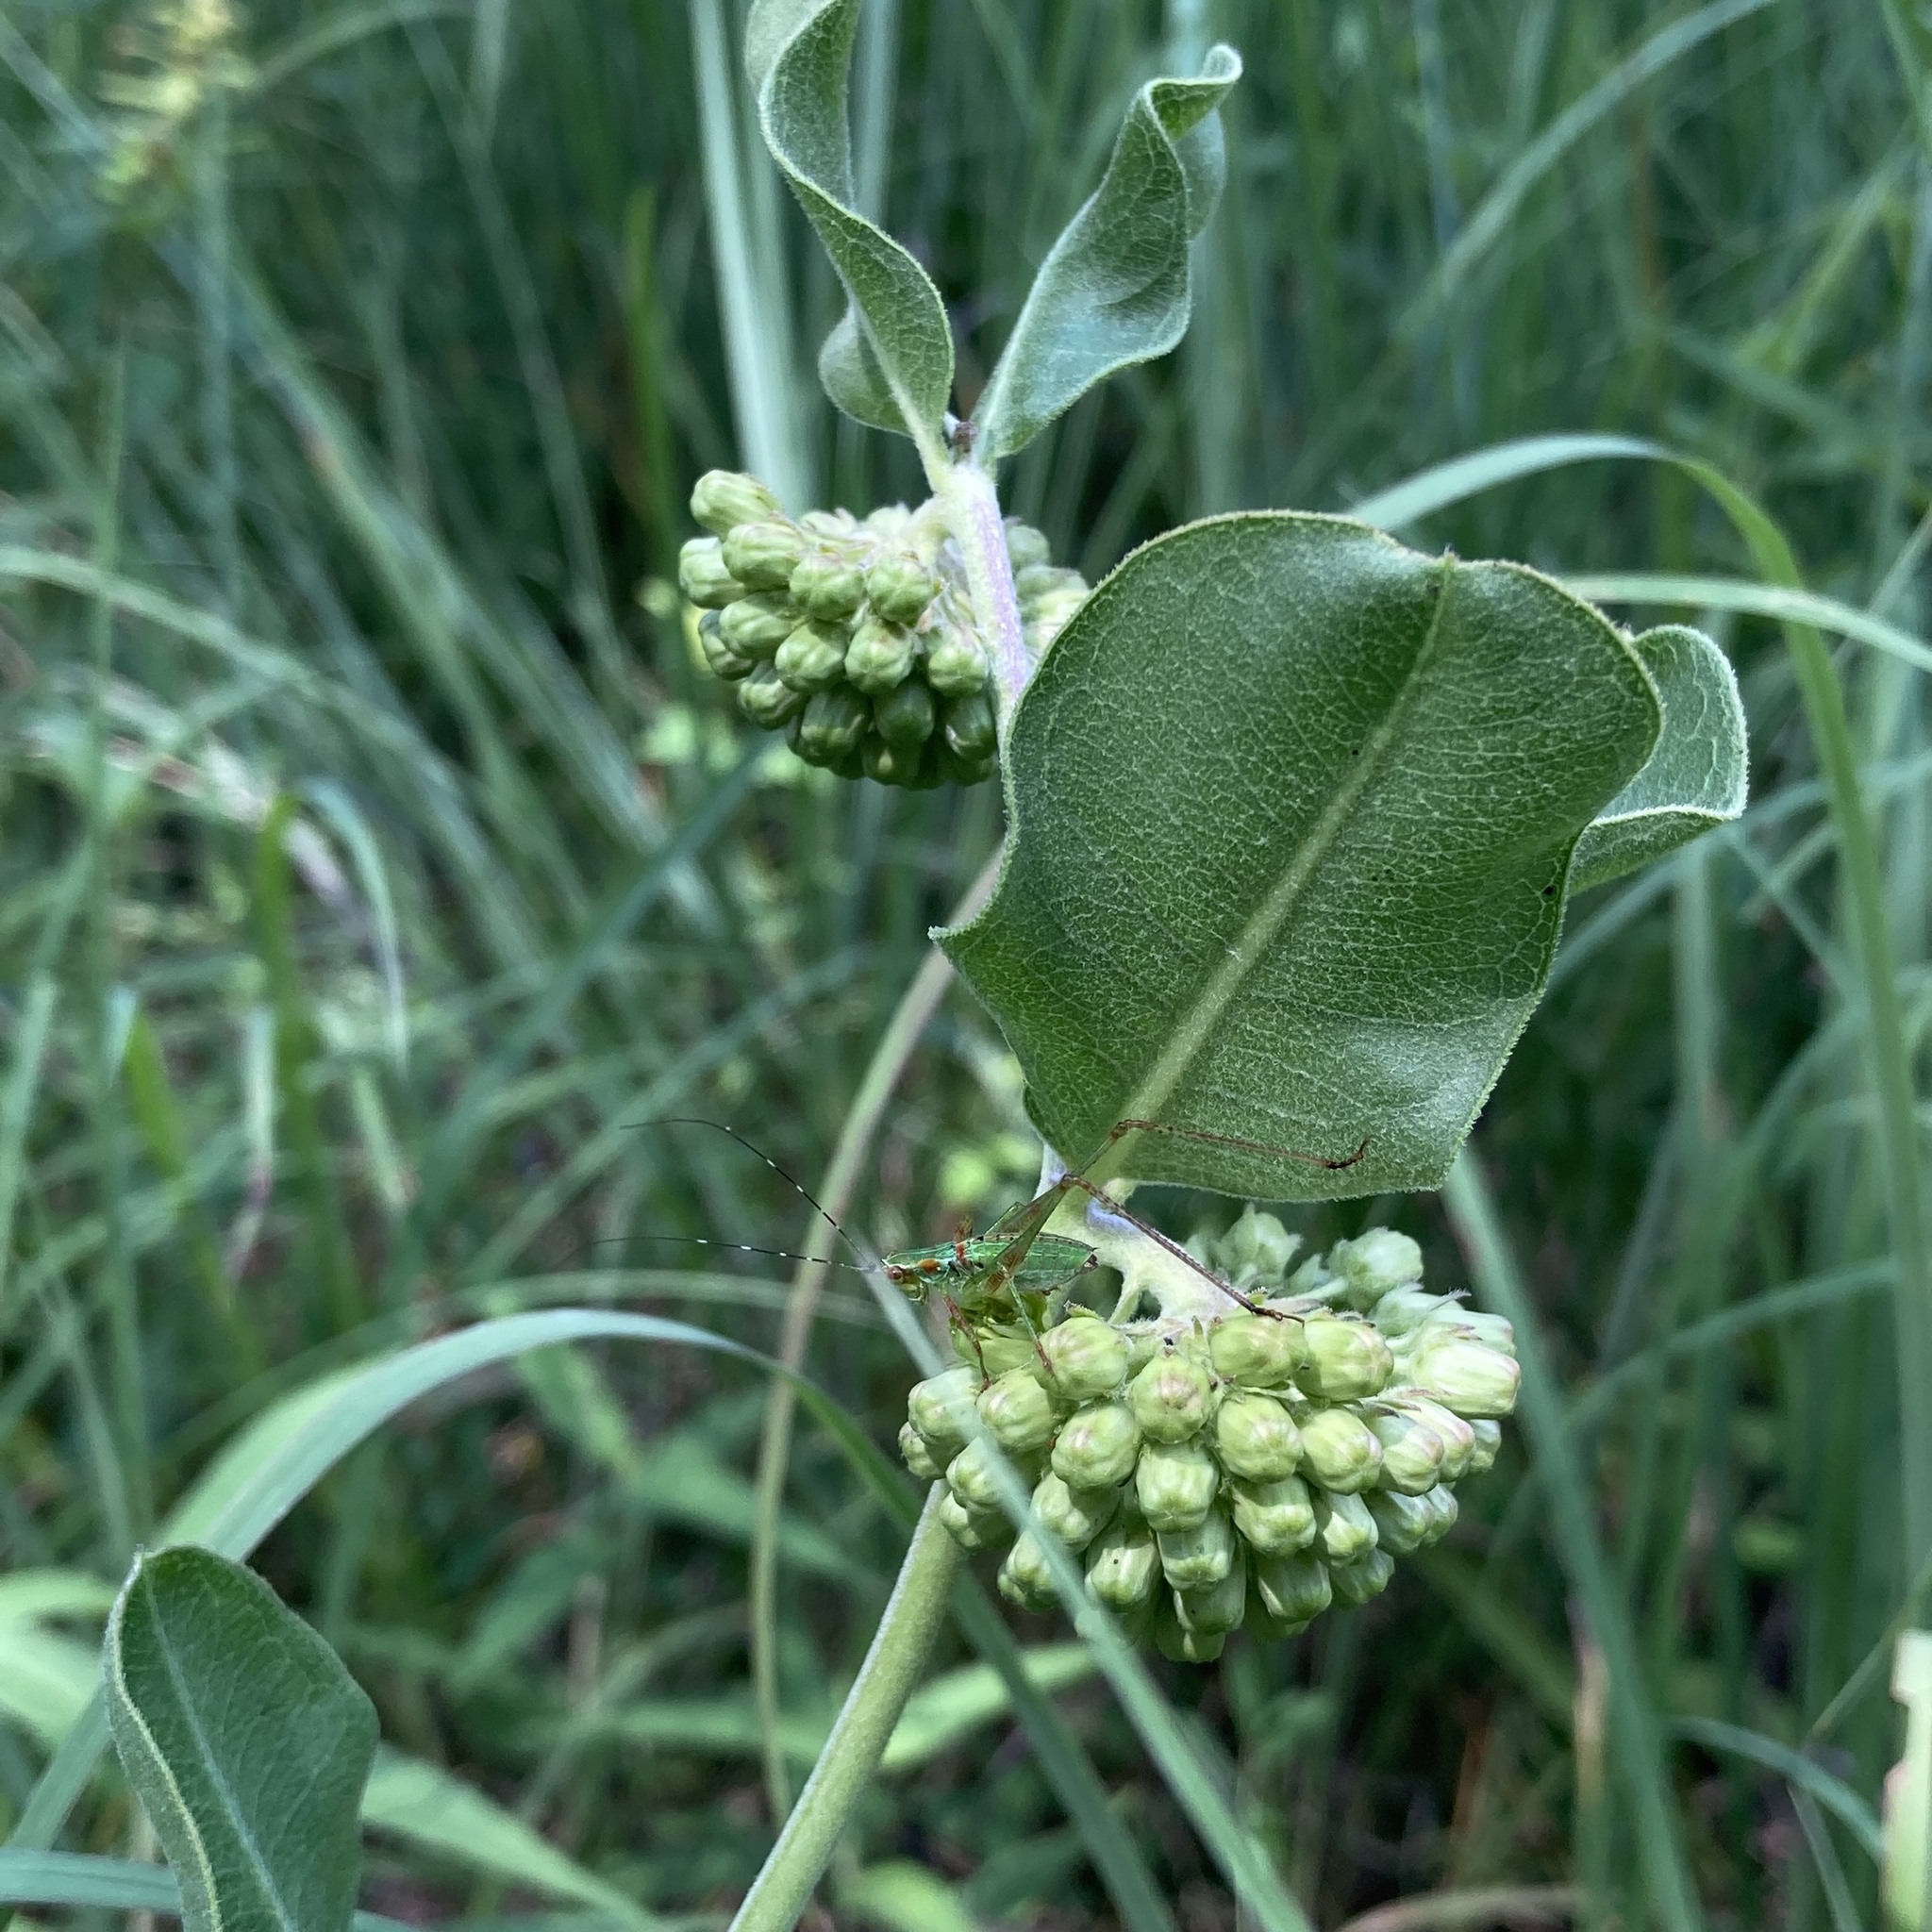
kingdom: Plantae
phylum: Tracheophyta
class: Magnoliopsida
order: Gentianales
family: Apocynaceae
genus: Asclepias
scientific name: Asclepias viridiflora
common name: Green comet milkweed
